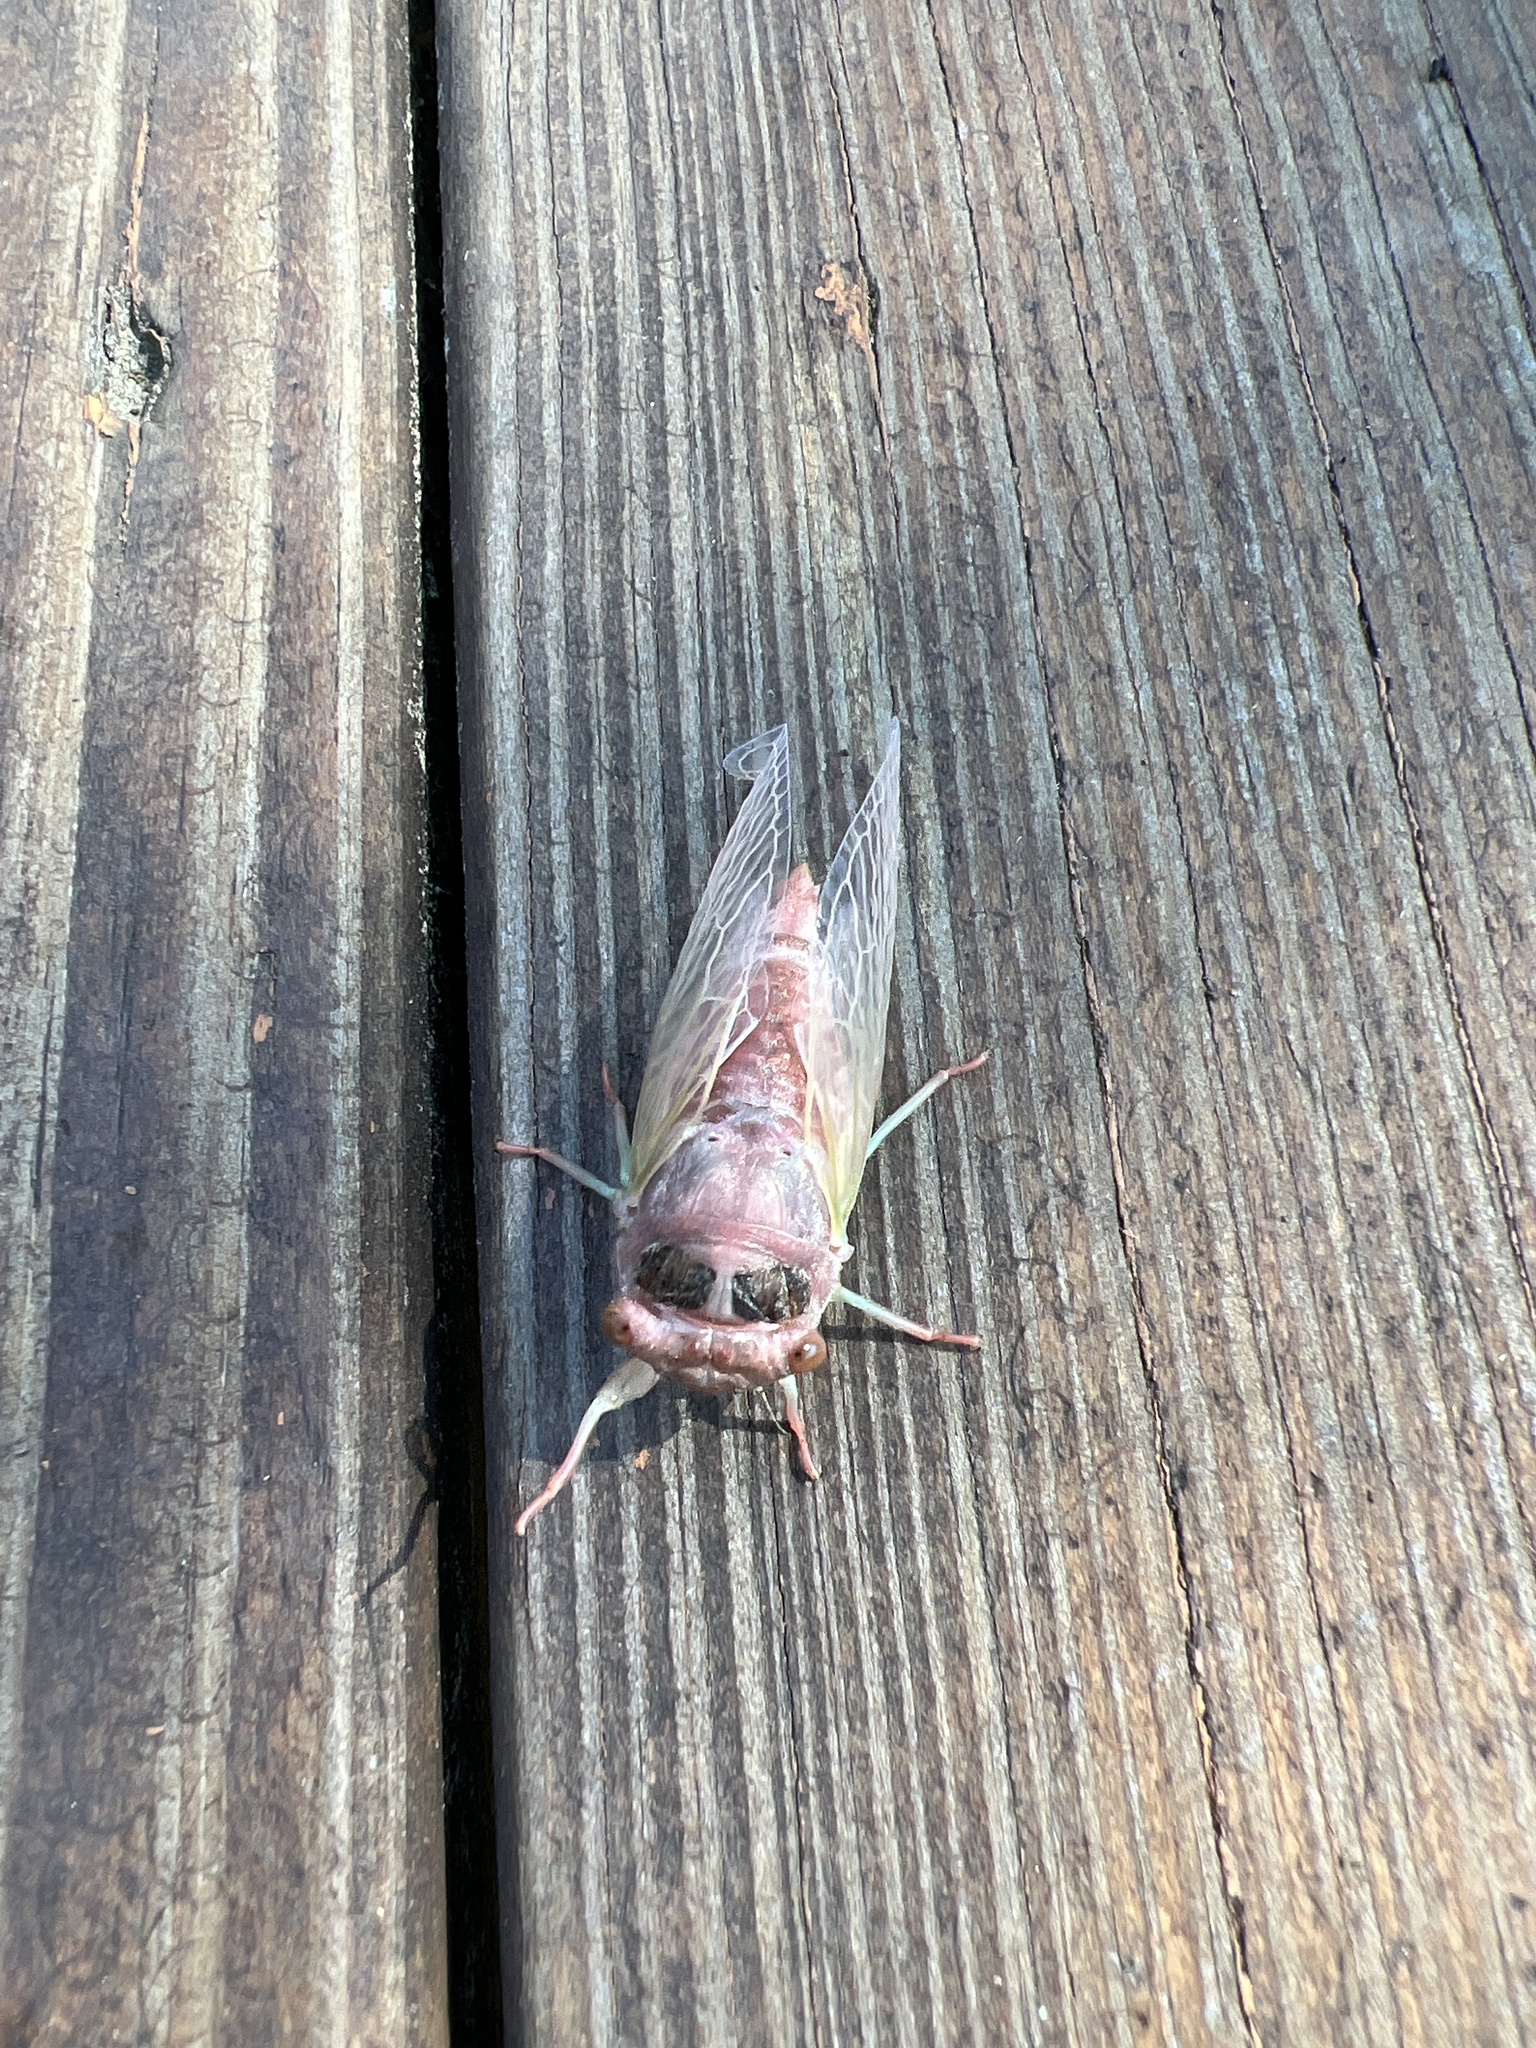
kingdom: Animalia
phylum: Arthropoda
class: Insecta
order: Hemiptera
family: Cicadidae
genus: Neotibicen
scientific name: Neotibicen canicularis
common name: God-day cicada
